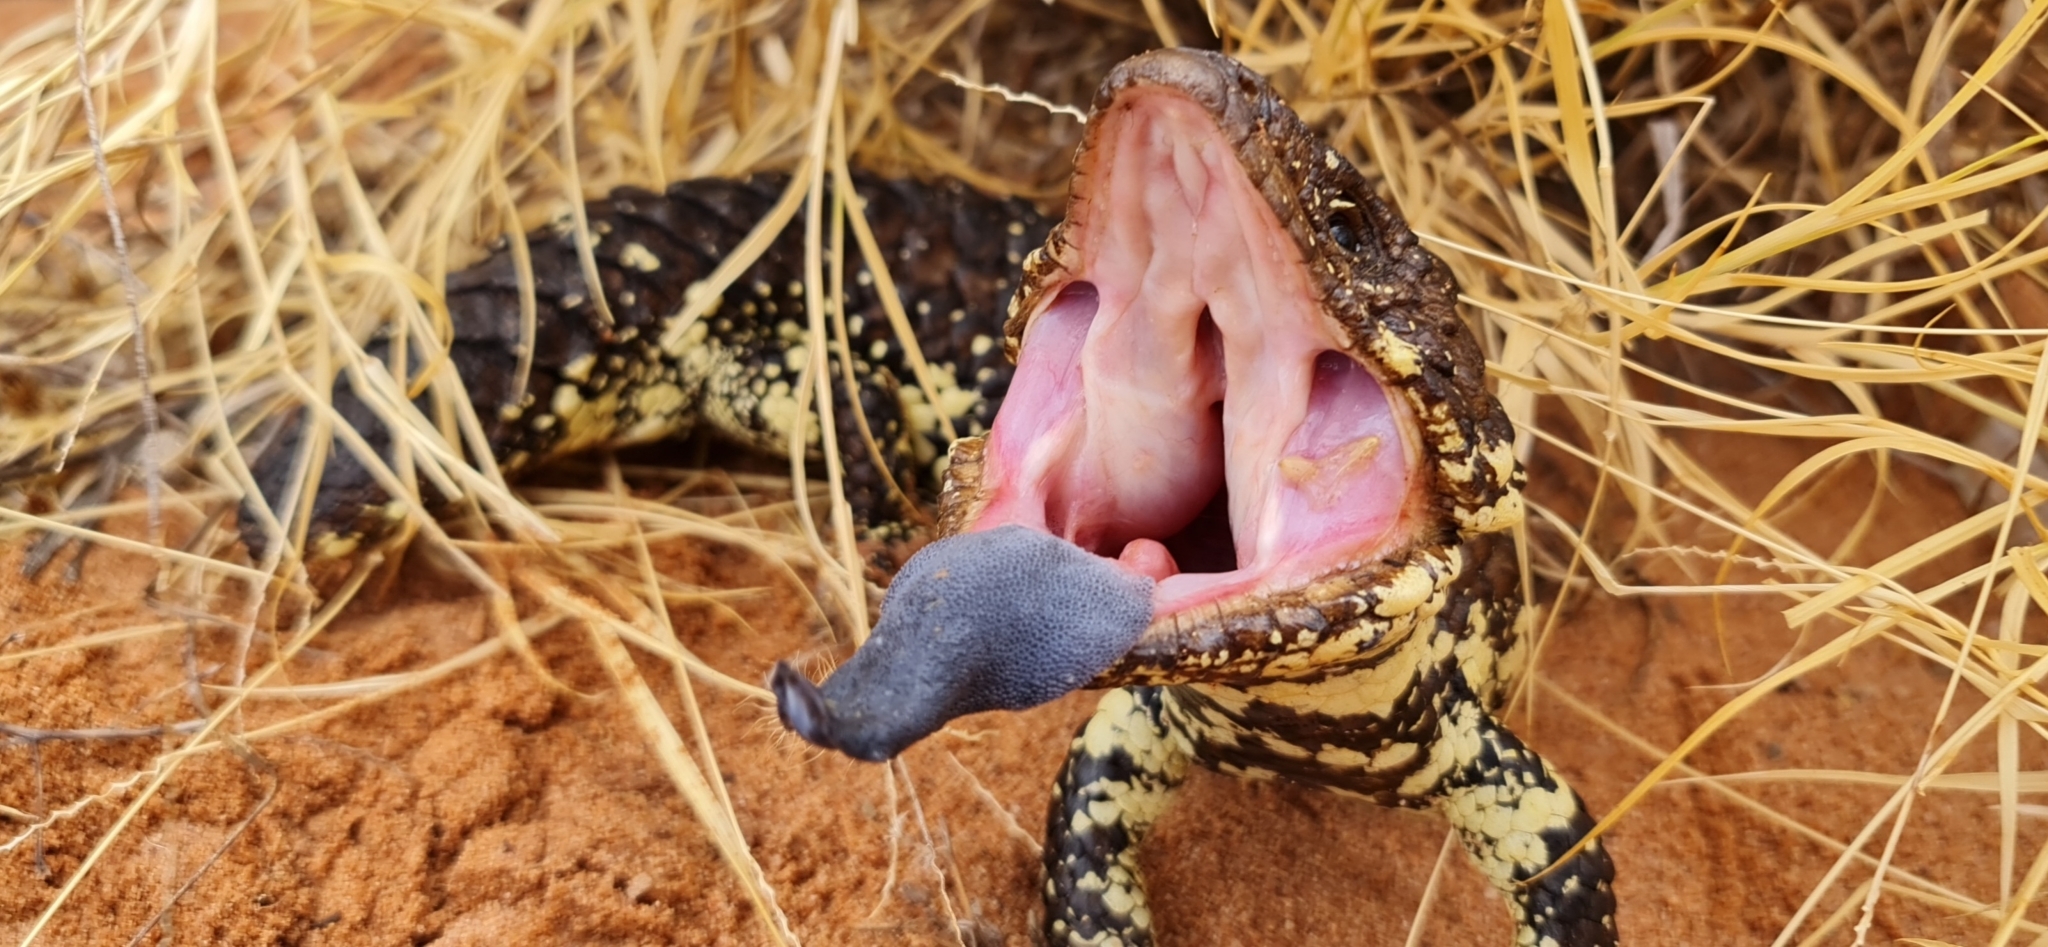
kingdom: Animalia
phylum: Chordata
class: Squamata
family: Scincidae
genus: Tiliqua
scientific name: Tiliqua rugosa
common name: Pinecone lizard
